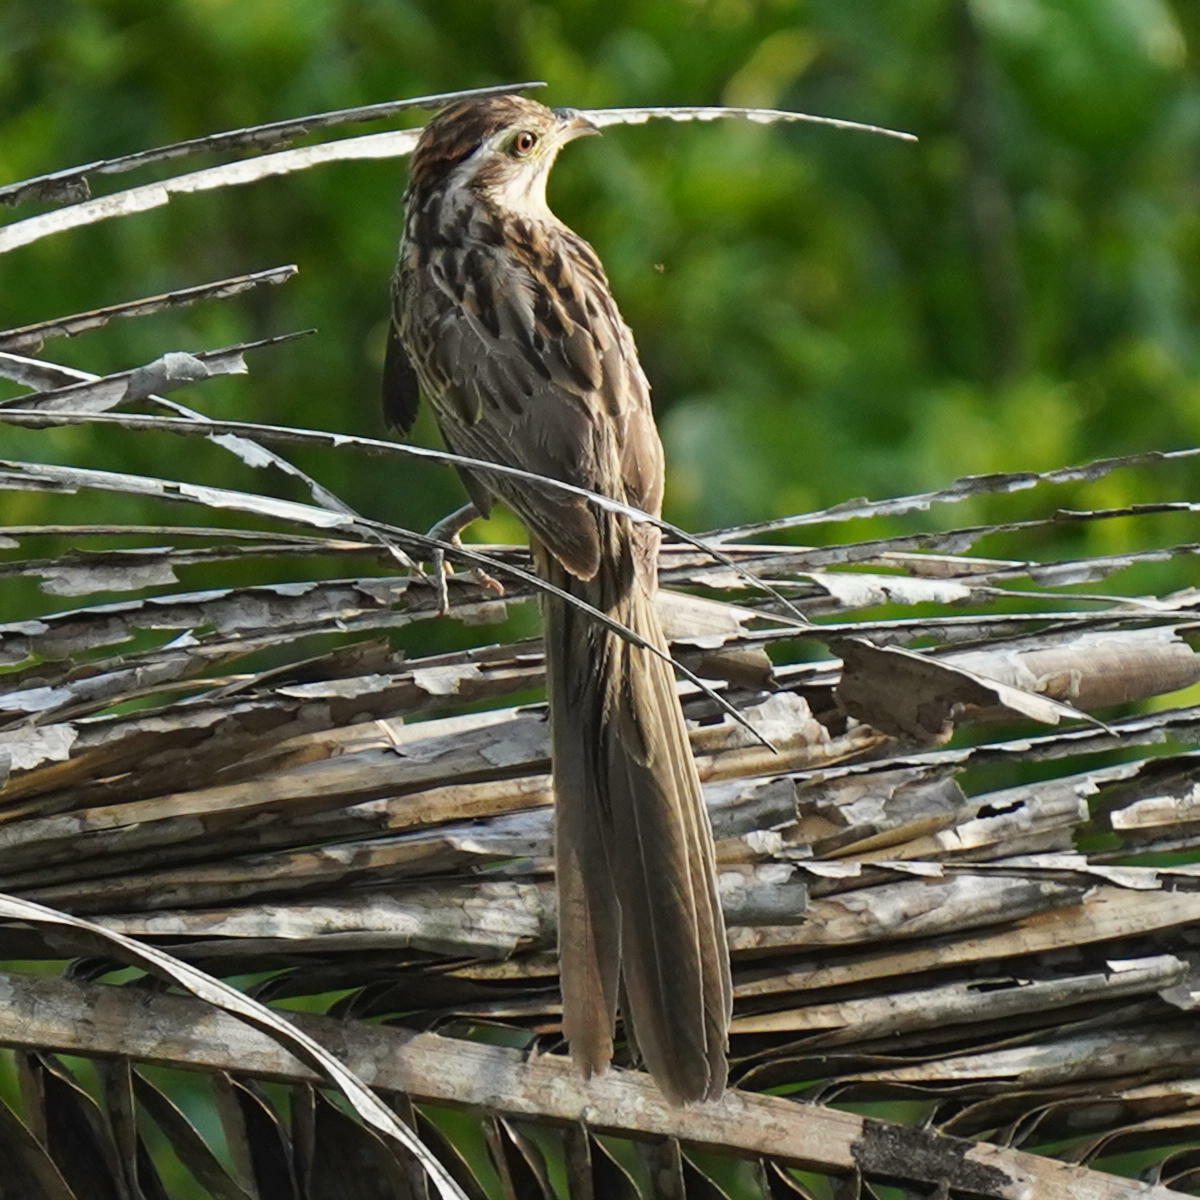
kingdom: Animalia
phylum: Chordata
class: Aves
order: Cuculiformes
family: Cuculidae
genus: Tapera
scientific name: Tapera naevia
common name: Striped cuckoo
